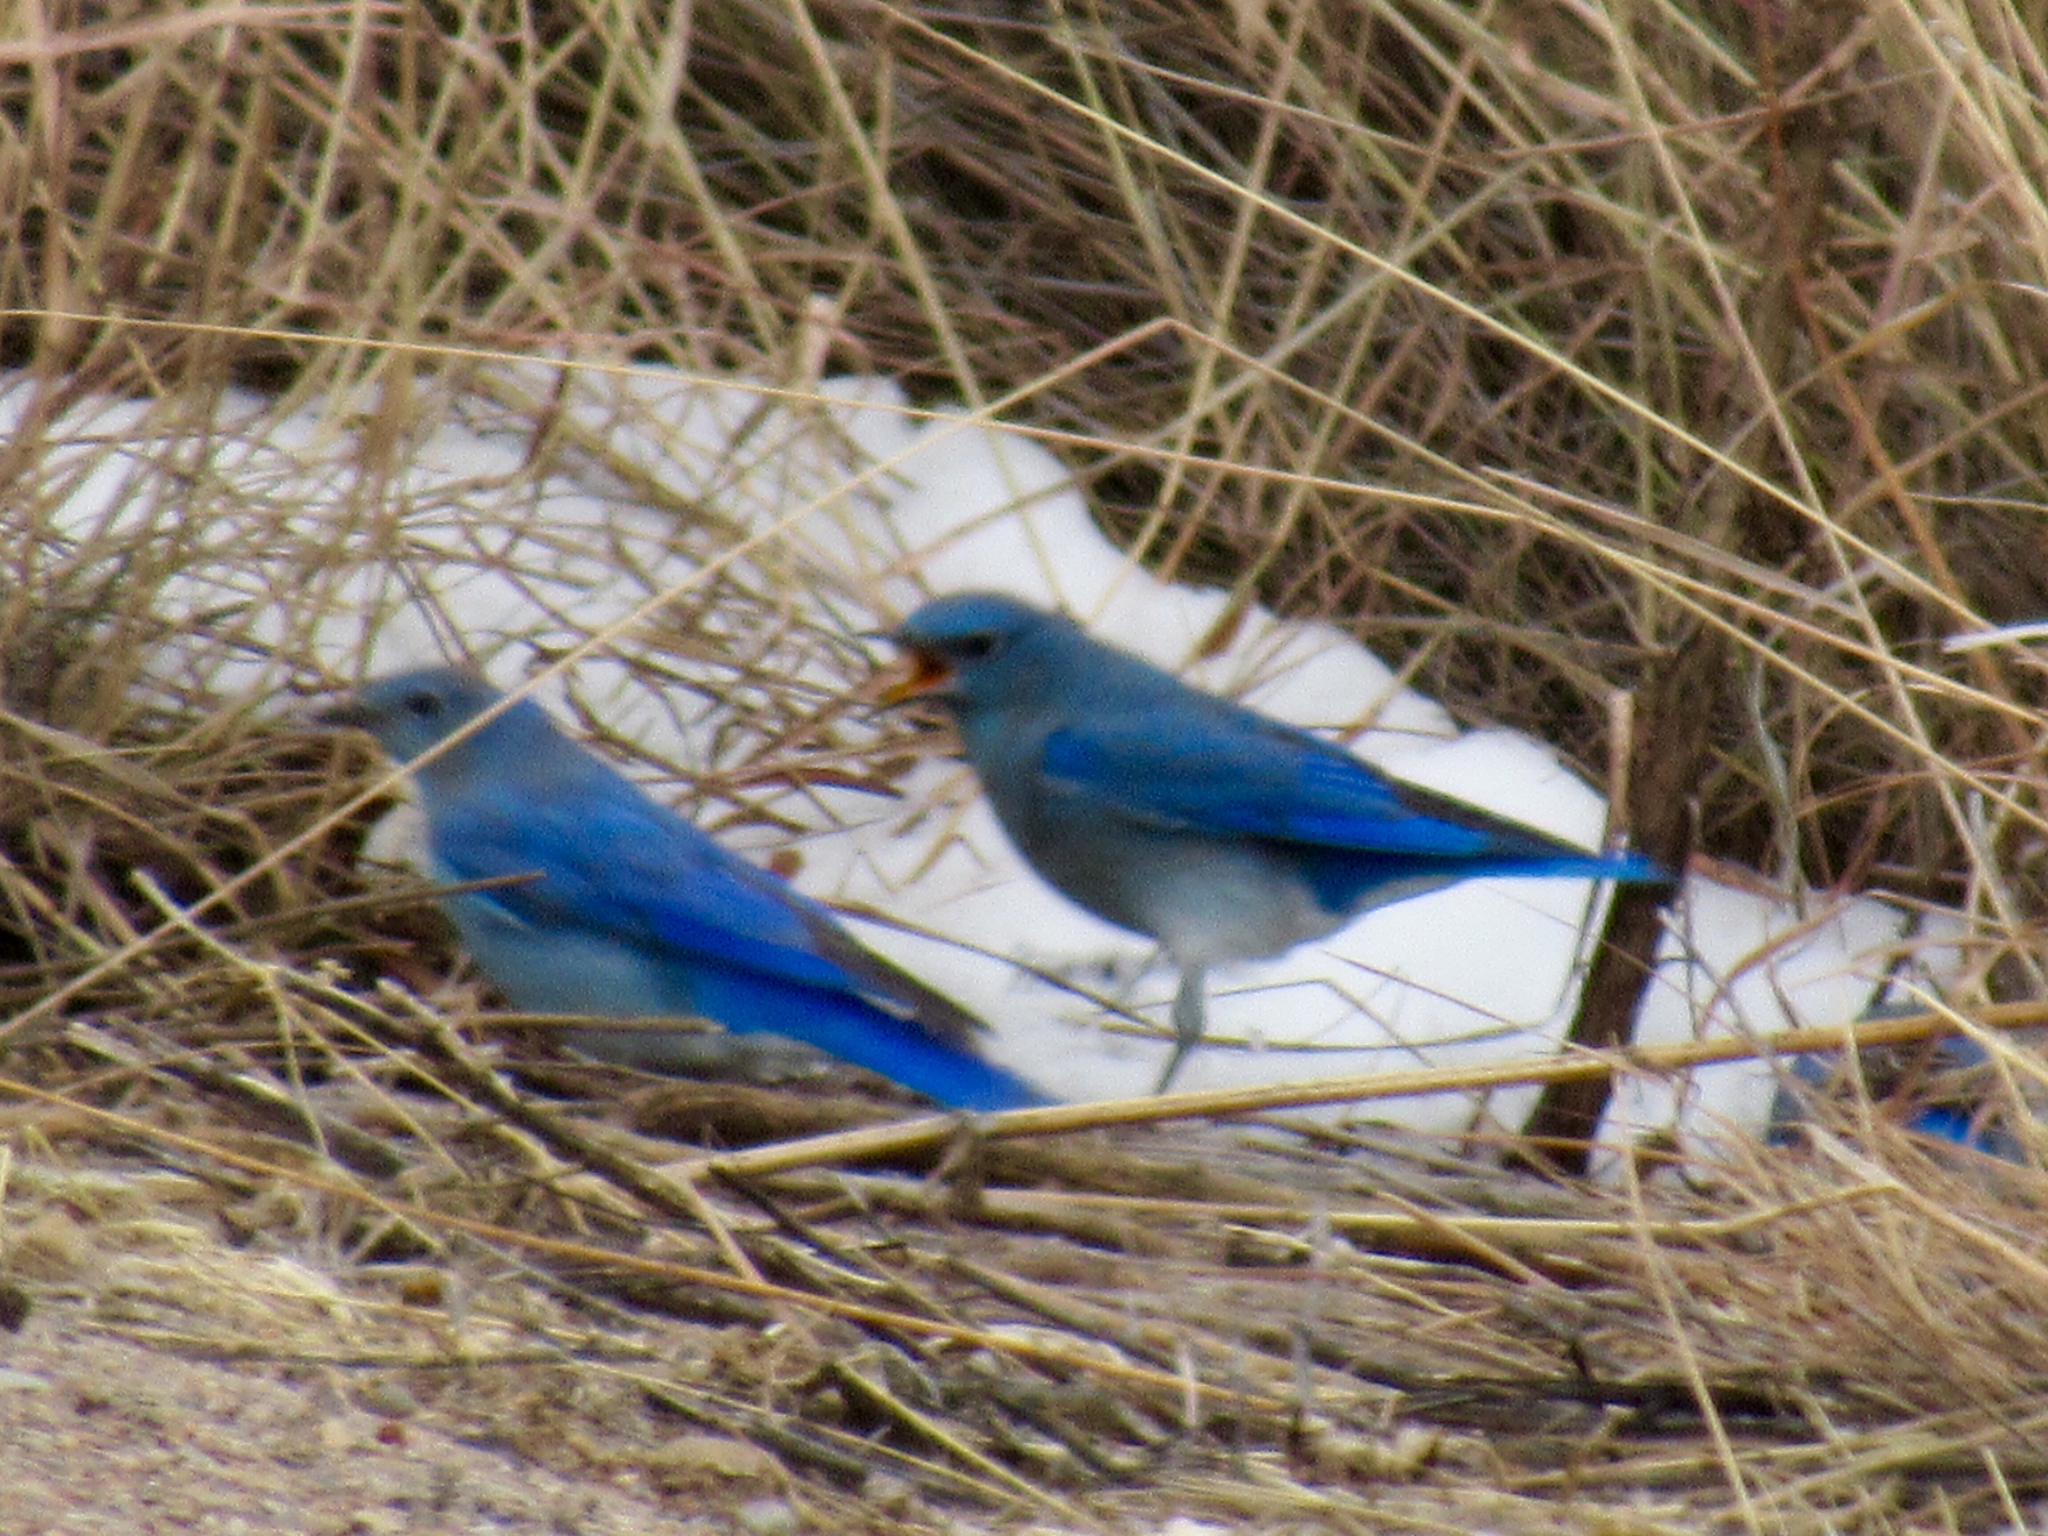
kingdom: Animalia
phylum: Chordata
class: Aves
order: Passeriformes
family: Turdidae
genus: Sialia
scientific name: Sialia currucoides
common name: Mountain bluebird
